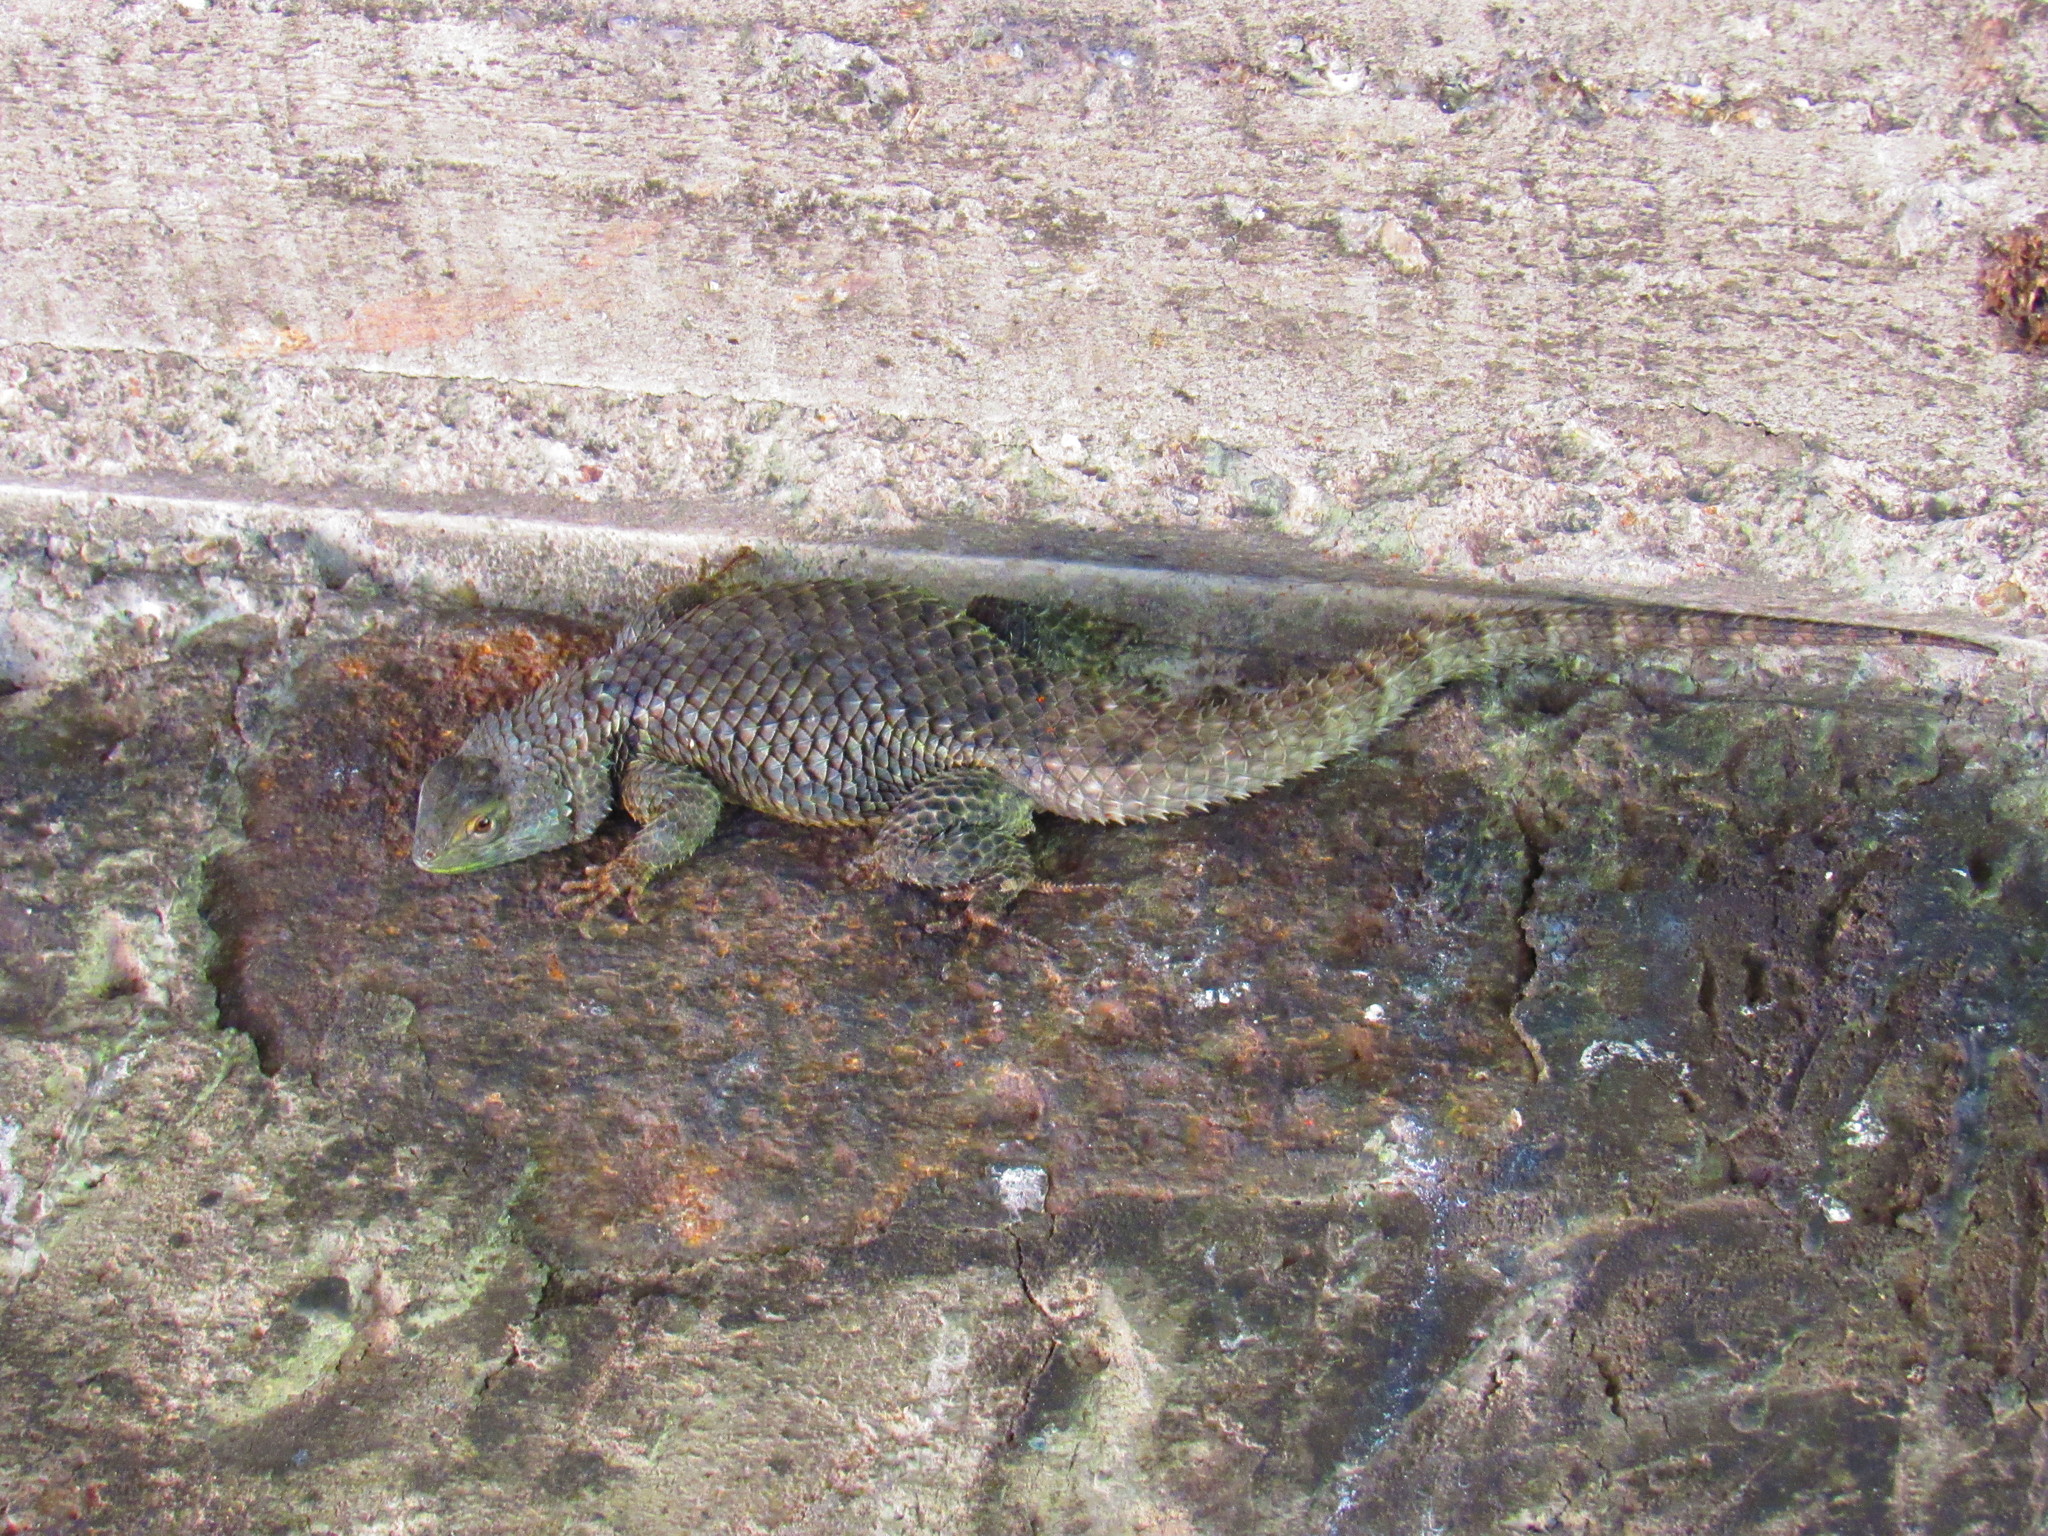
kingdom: Animalia
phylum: Chordata
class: Squamata
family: Phrynosomatidae
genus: Sceloporus
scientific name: Sceloporus torquatus
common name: Central plateau torquate lizard [melanogaster]
